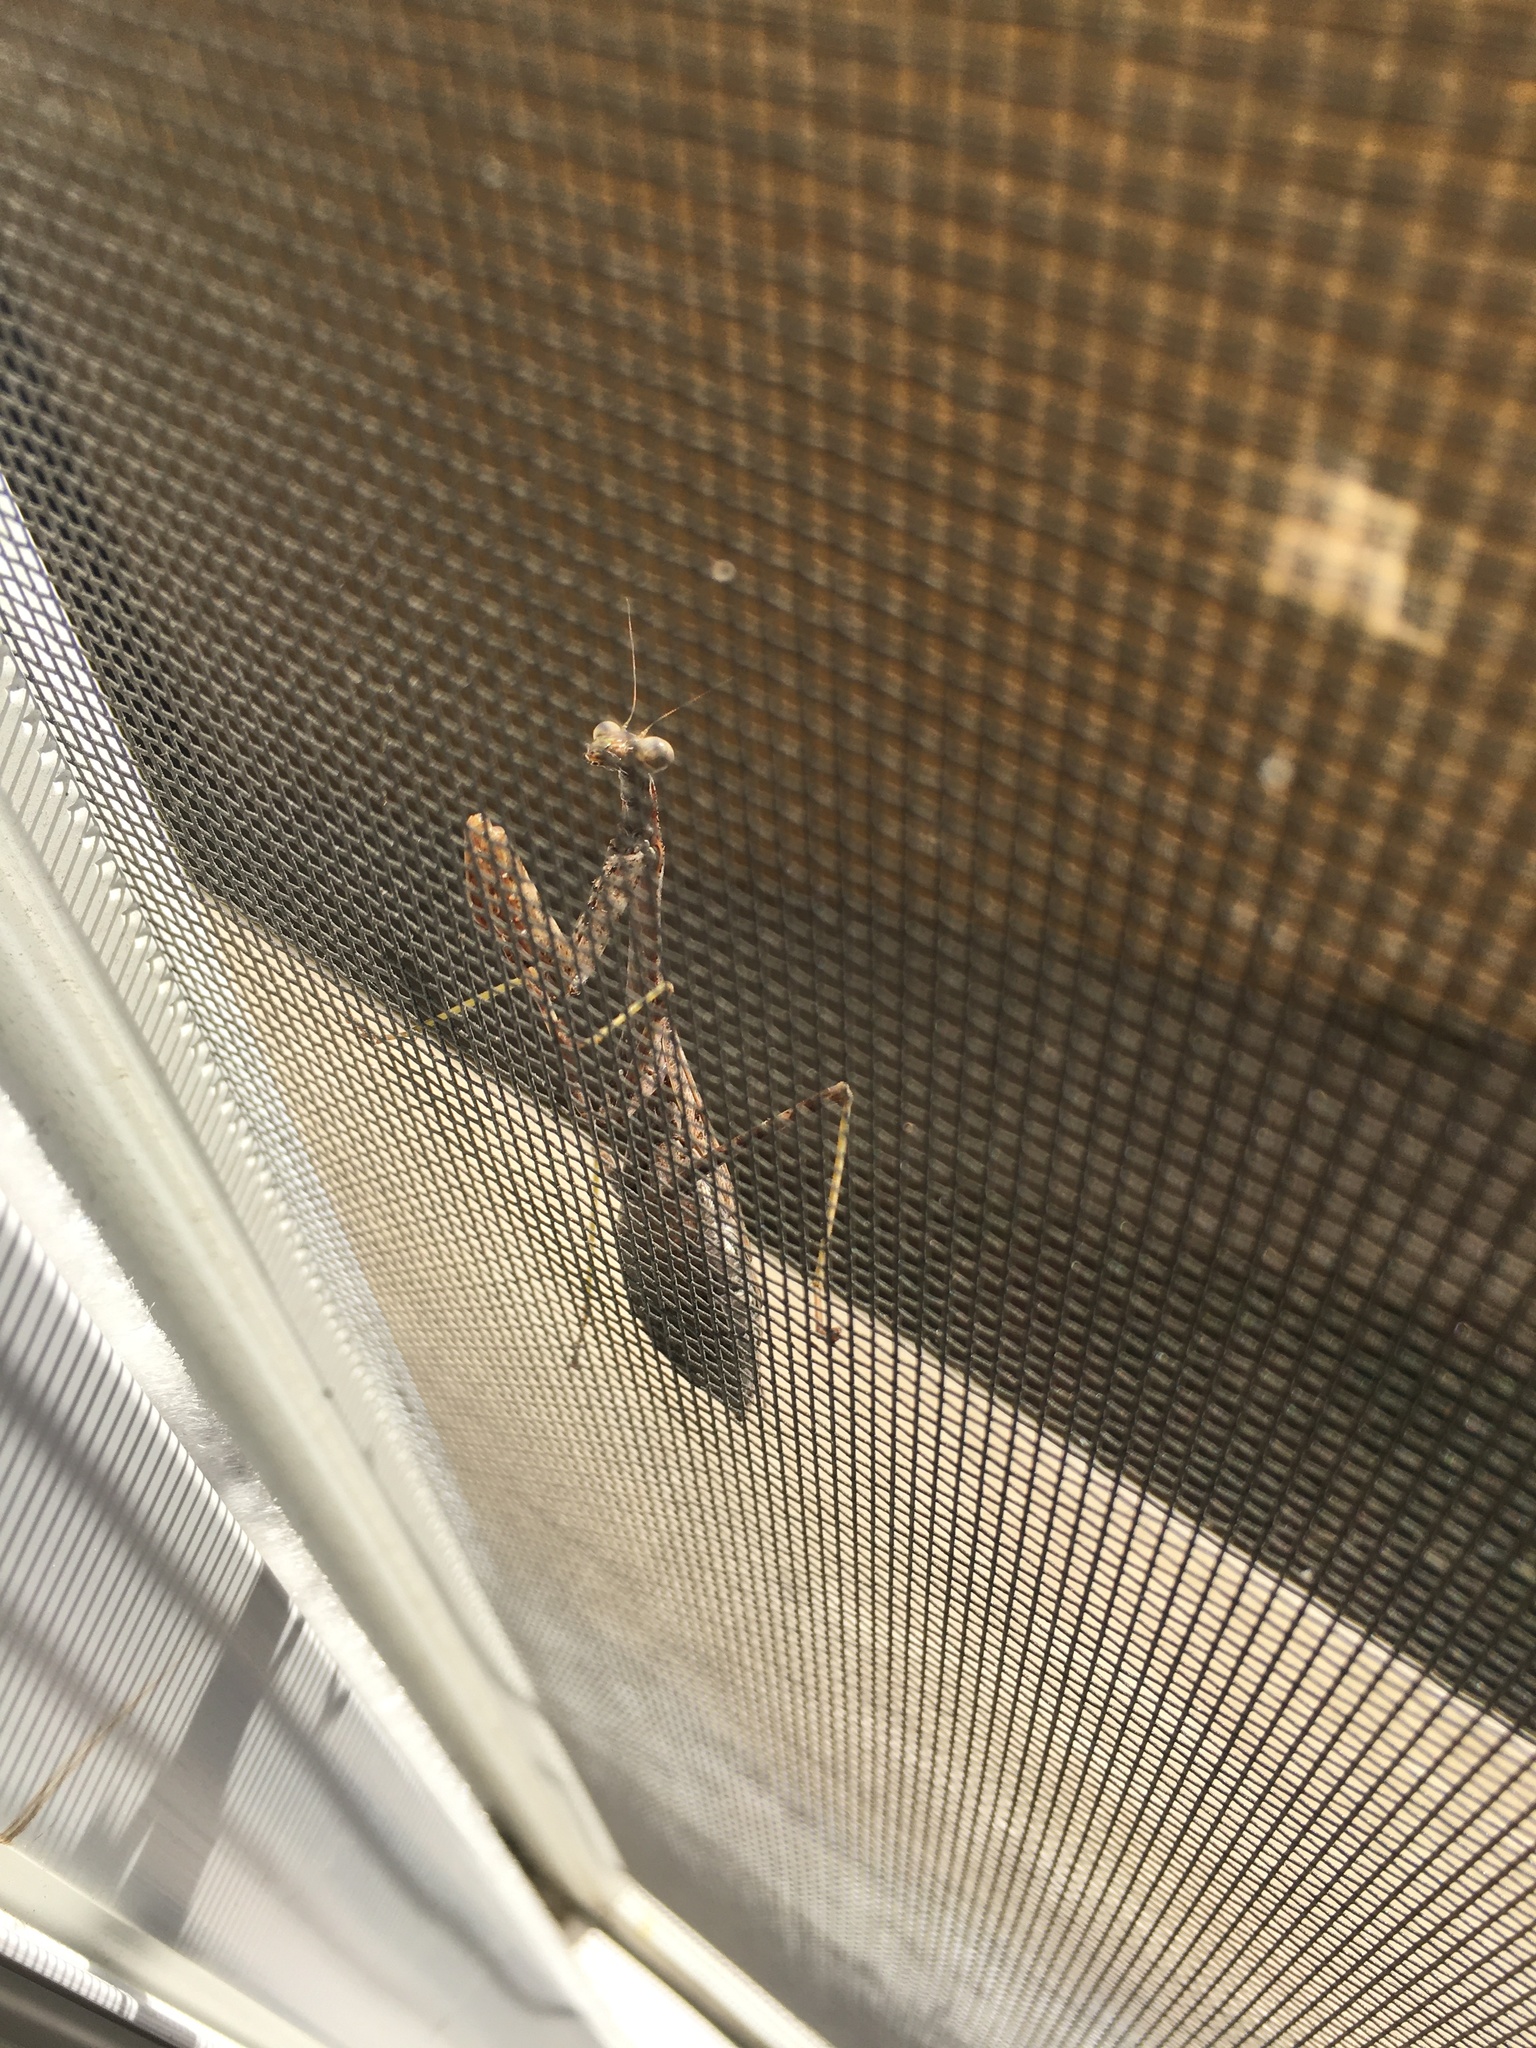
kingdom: Animalia
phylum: Arthropoda
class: Insecta
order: Mantodea
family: Mantidae
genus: Stagmomantis
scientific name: Stagmomantis carolina
